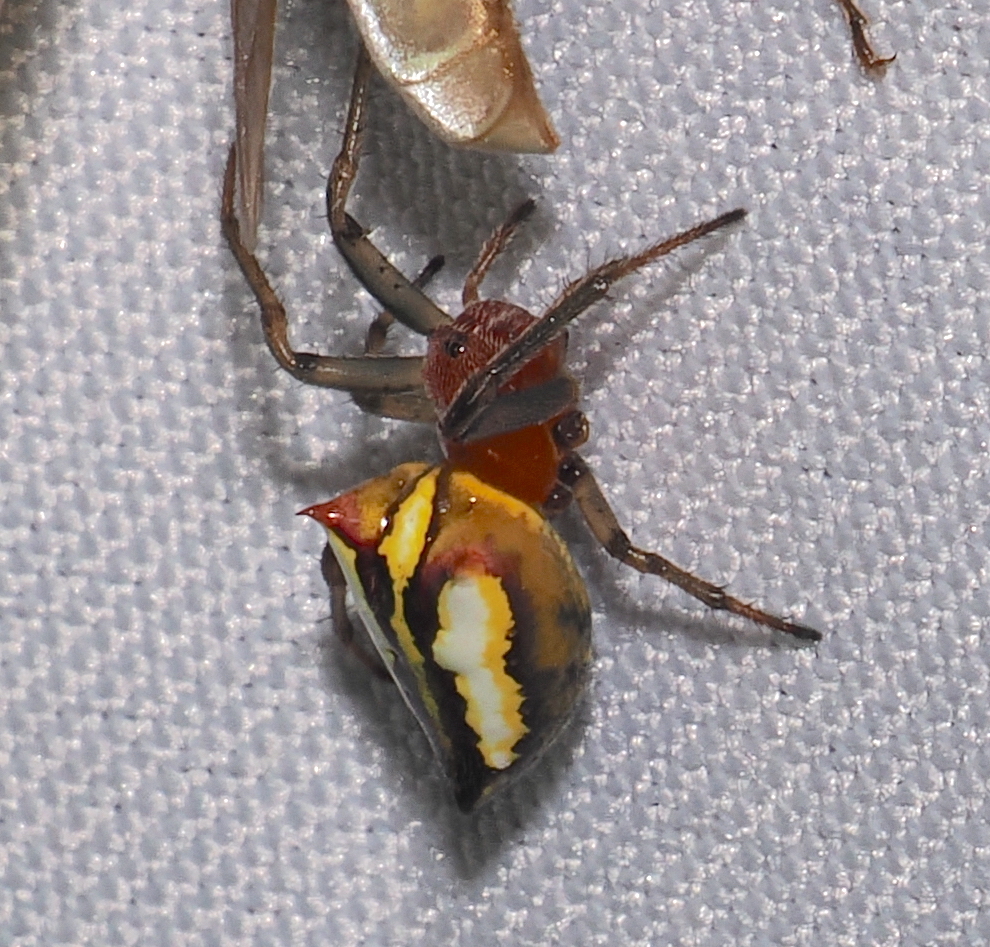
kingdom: Animalia
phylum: Arthropoda
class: Arachnida
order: Araneae
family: Araneidae
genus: Alpaida
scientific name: Alpaida bicornuta
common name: Orb weavers
